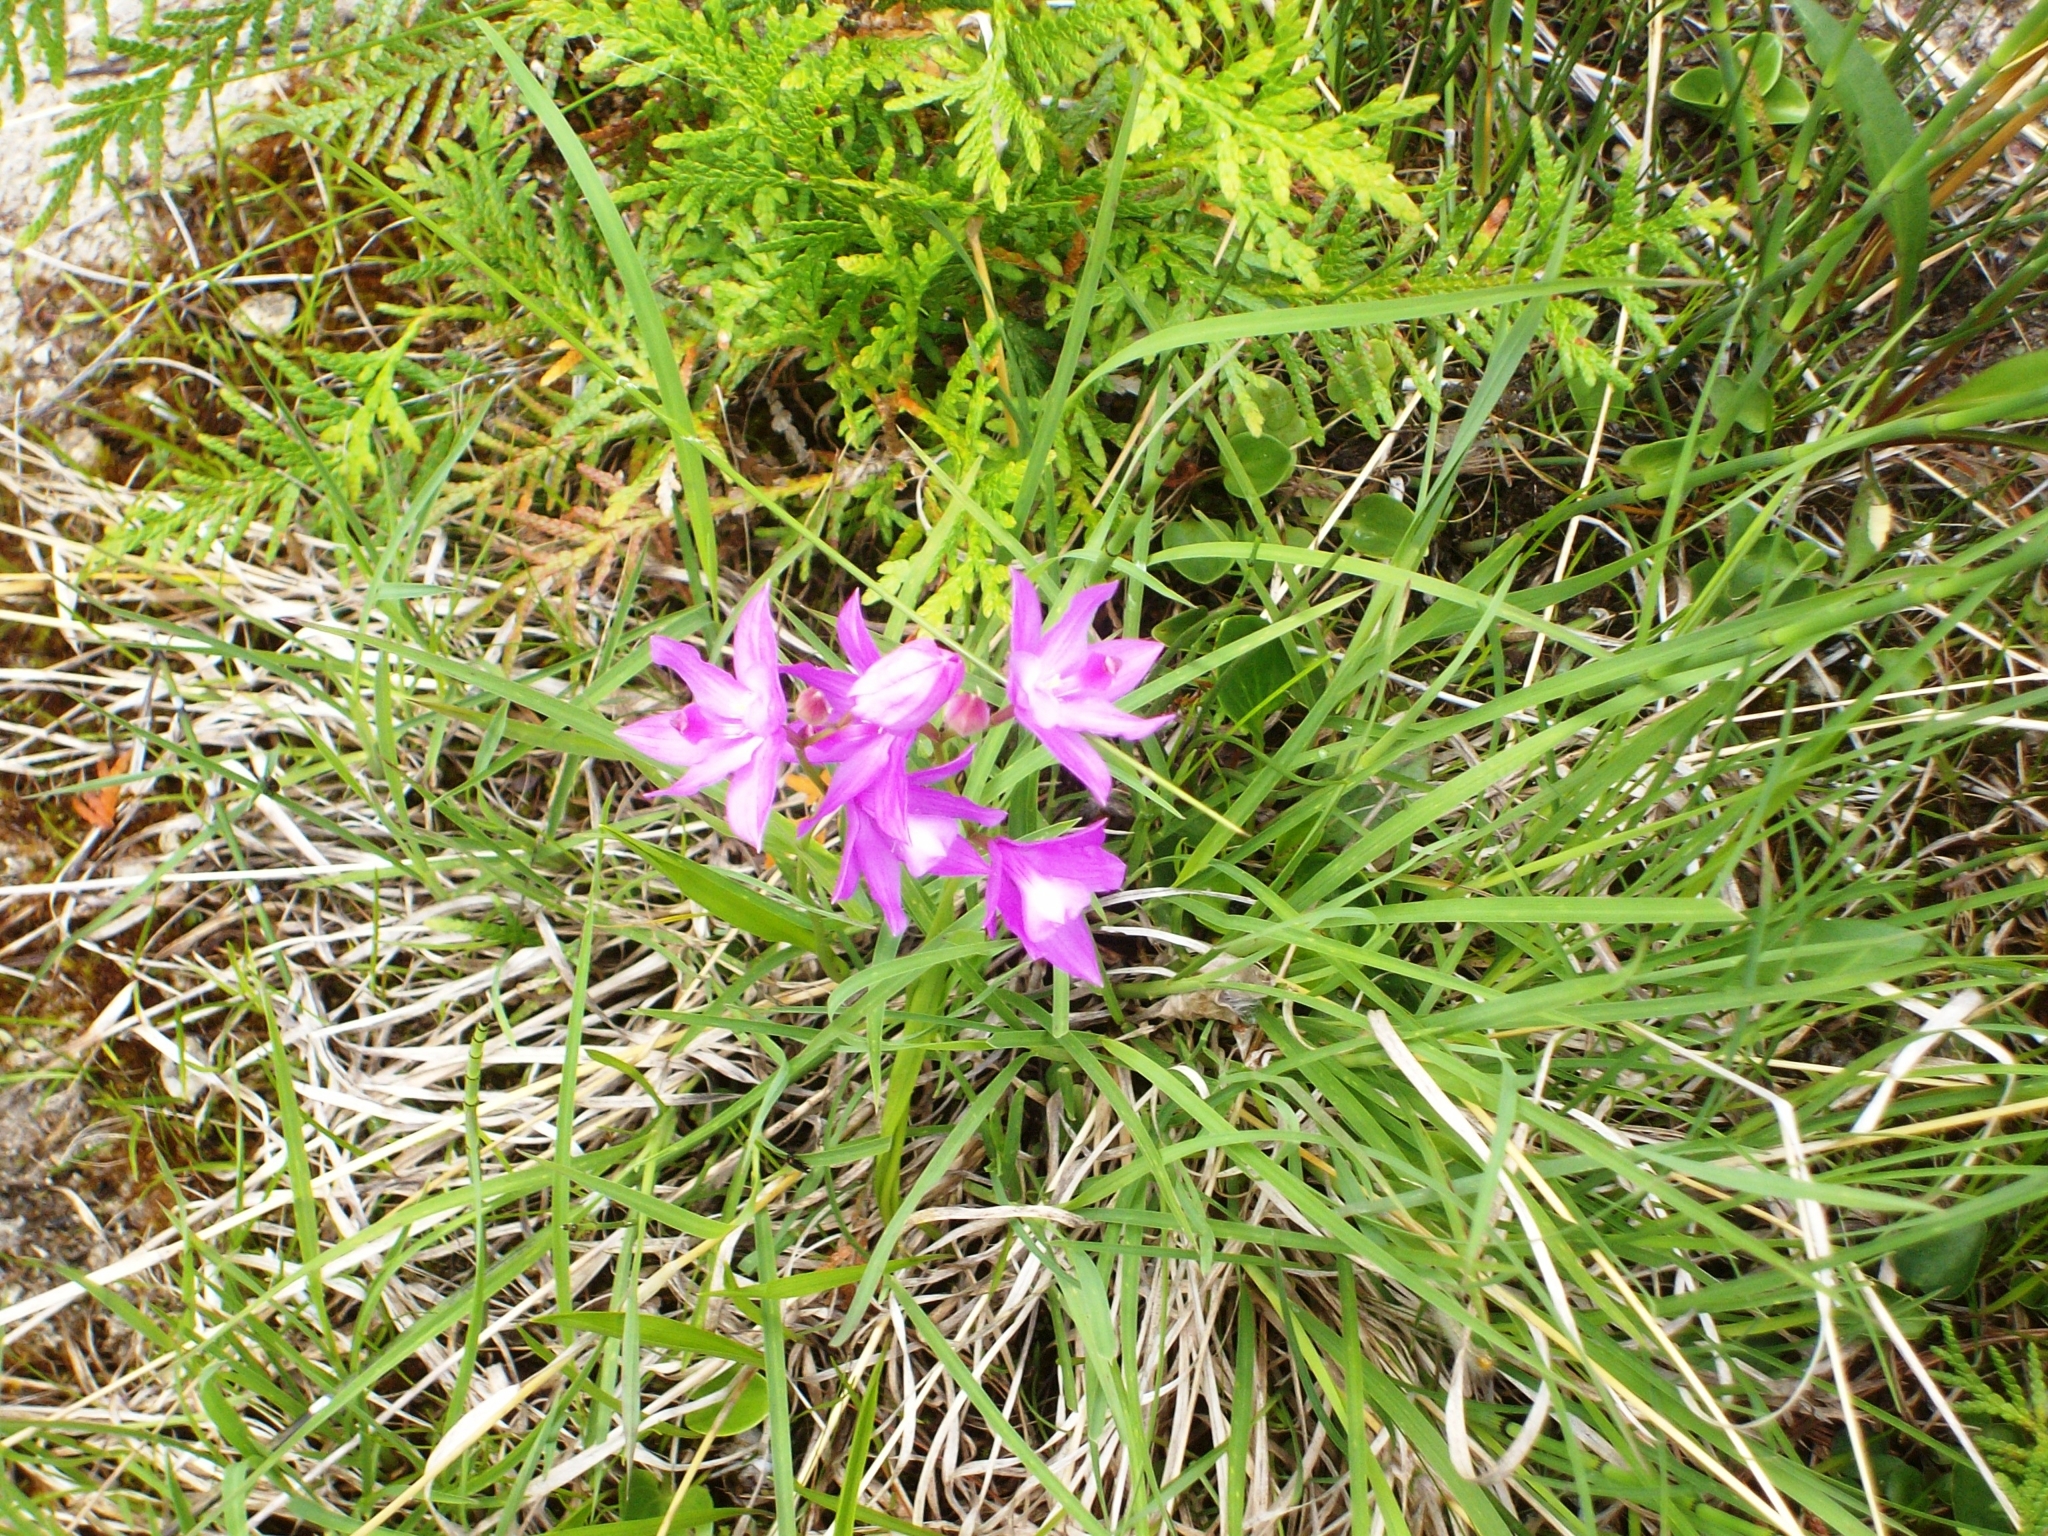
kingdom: Plantae
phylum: Tracheophyta
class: Liliopsida
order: Asparagales
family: Orchidaceae
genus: Calopogon
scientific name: Calopogon tuberosus
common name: Grass-pink
